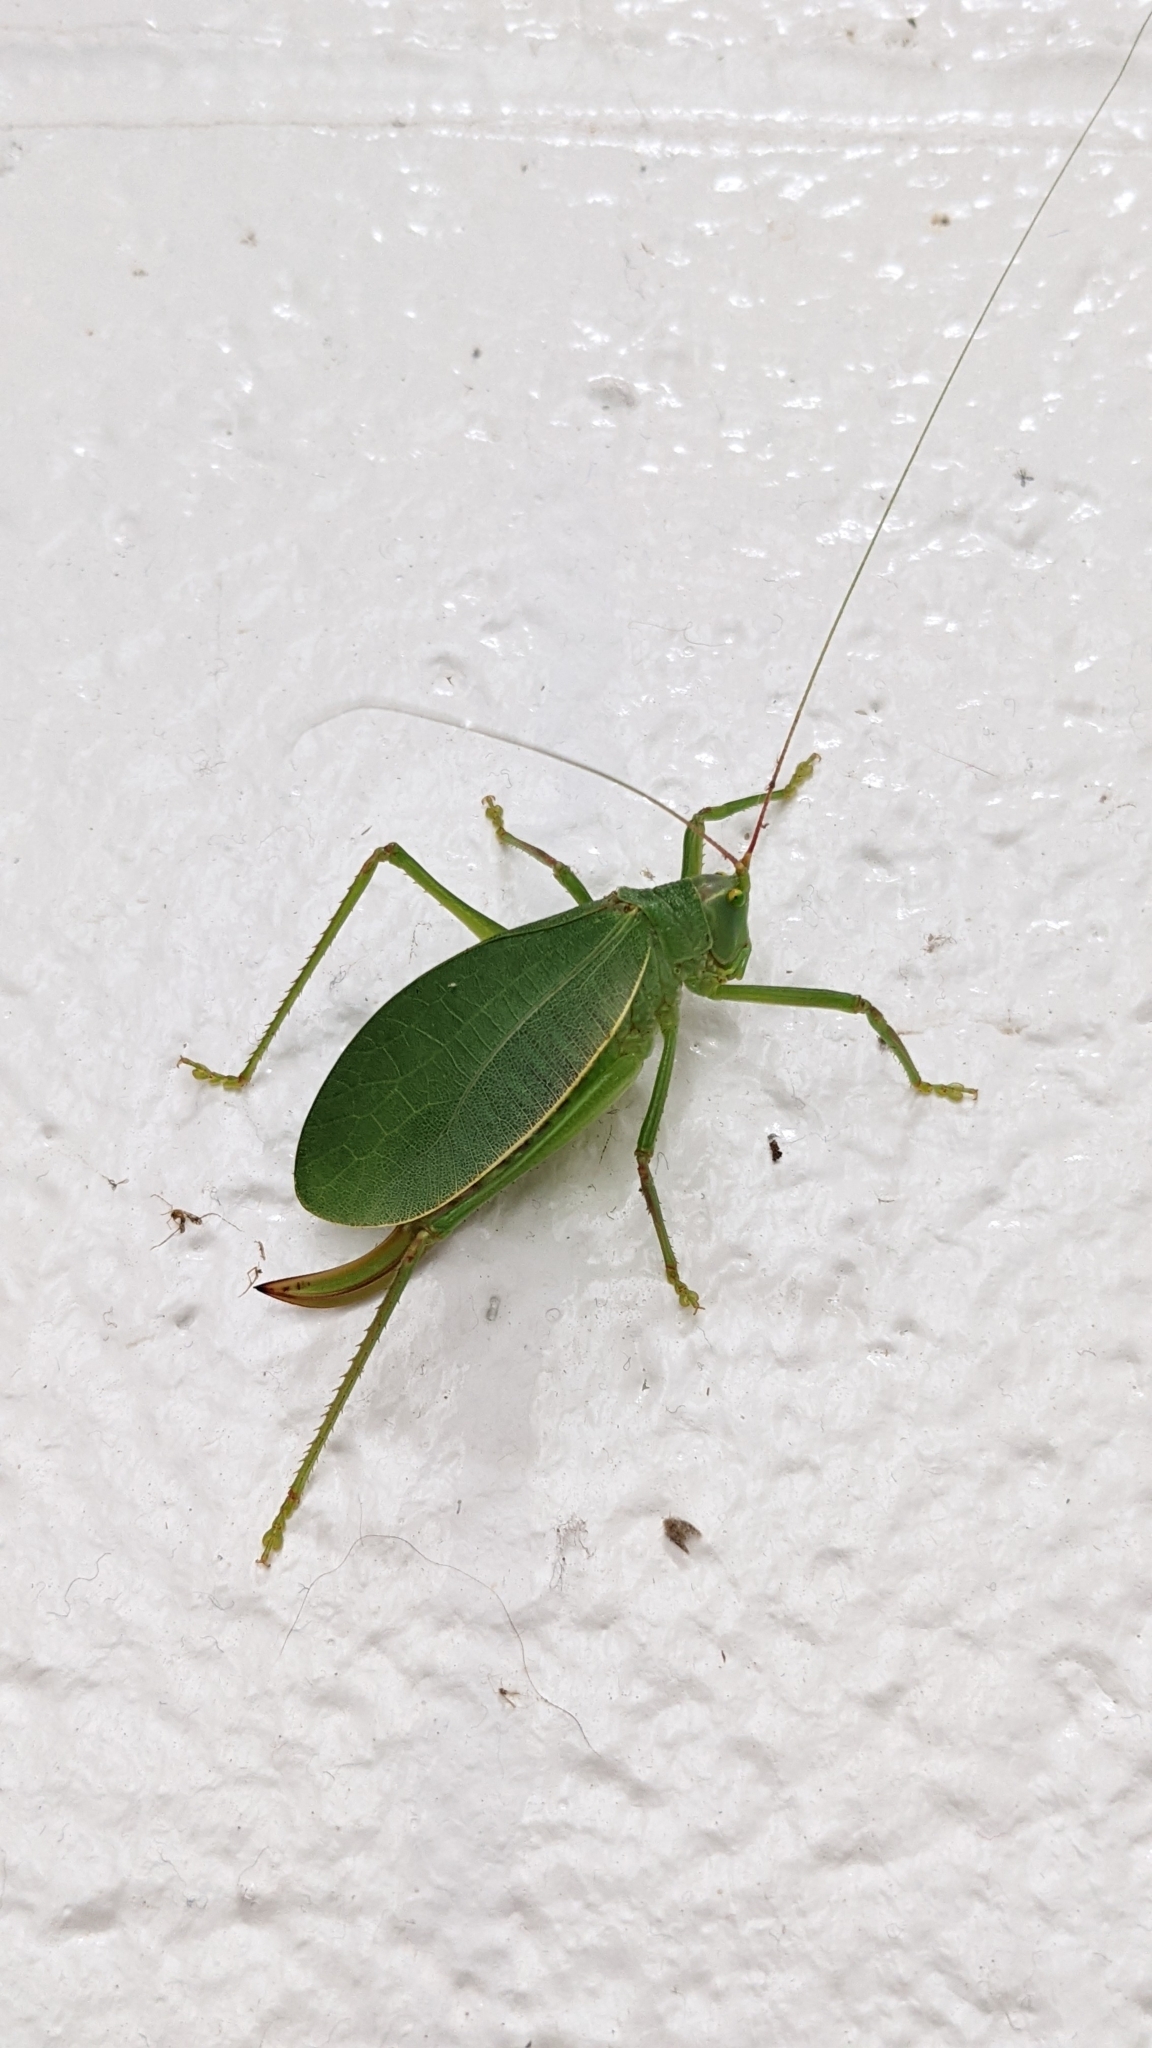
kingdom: Animalia
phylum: Arthropoda
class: Insecta
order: Orthoptera
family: Tettigoniidae
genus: Pterophylla
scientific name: Pterophylla camellifolia
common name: Common true katydid
